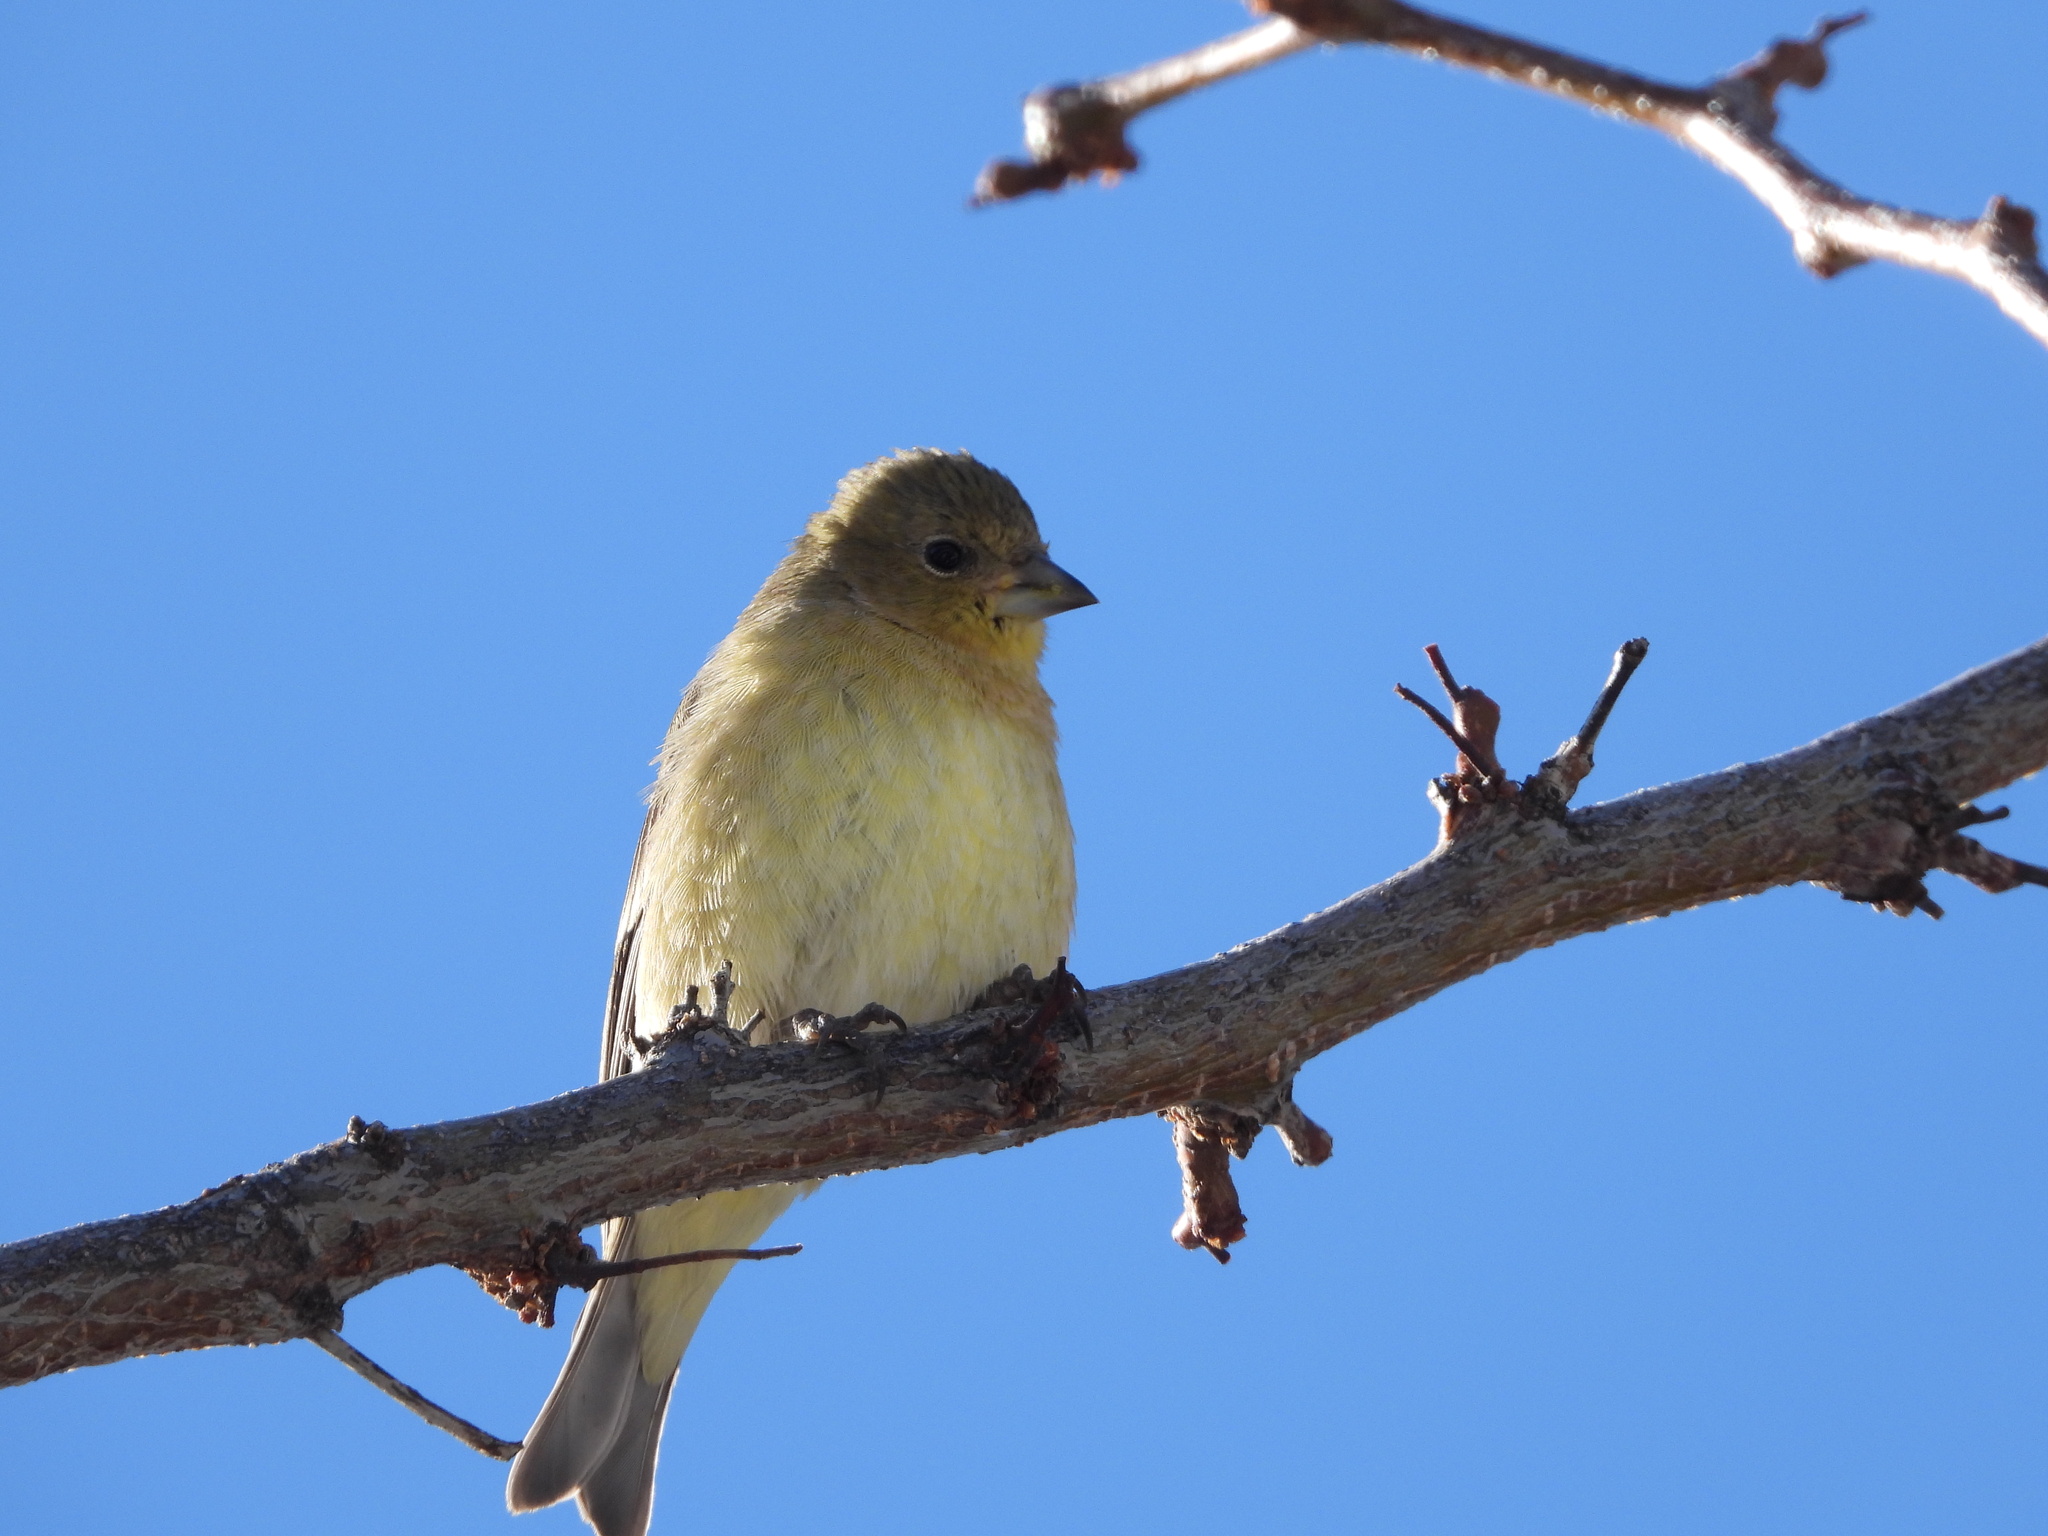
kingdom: Animalia
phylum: Chordata
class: Aves
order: Passeriformes
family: Fringillidae
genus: Spinus
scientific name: Spinus psaltria
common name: Lesser goldfinch
